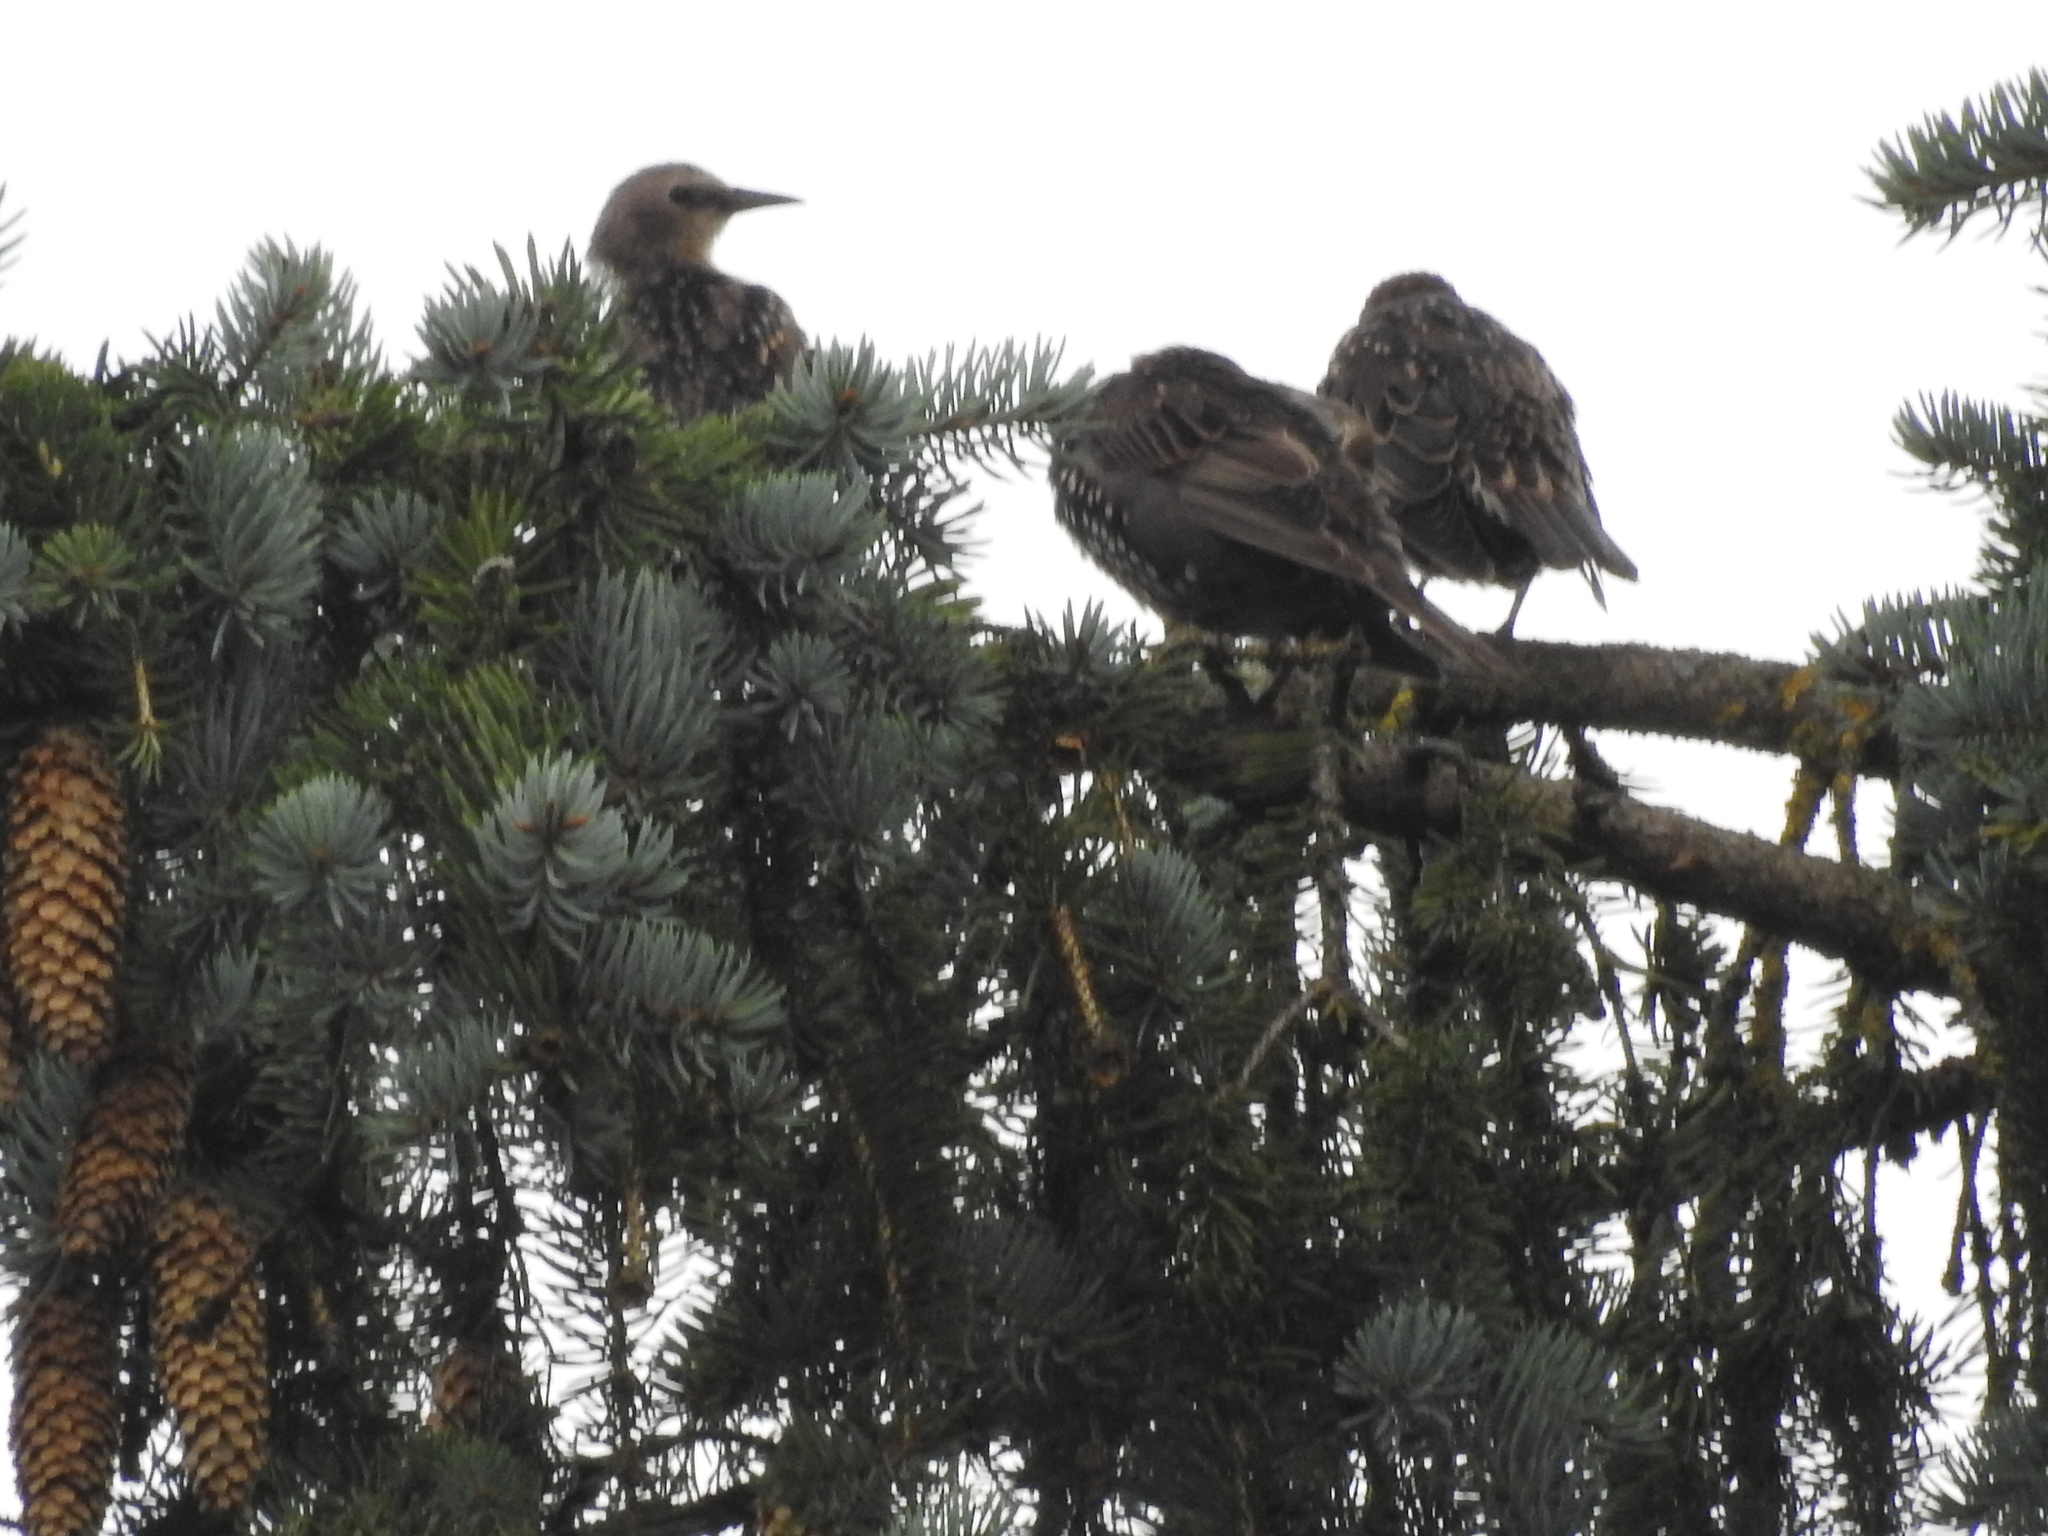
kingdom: Animalia
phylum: Chordata
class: Aves
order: Passeriformes
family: Sturnidae
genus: Sturnus
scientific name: Sturnus vulgaris
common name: Common starling
